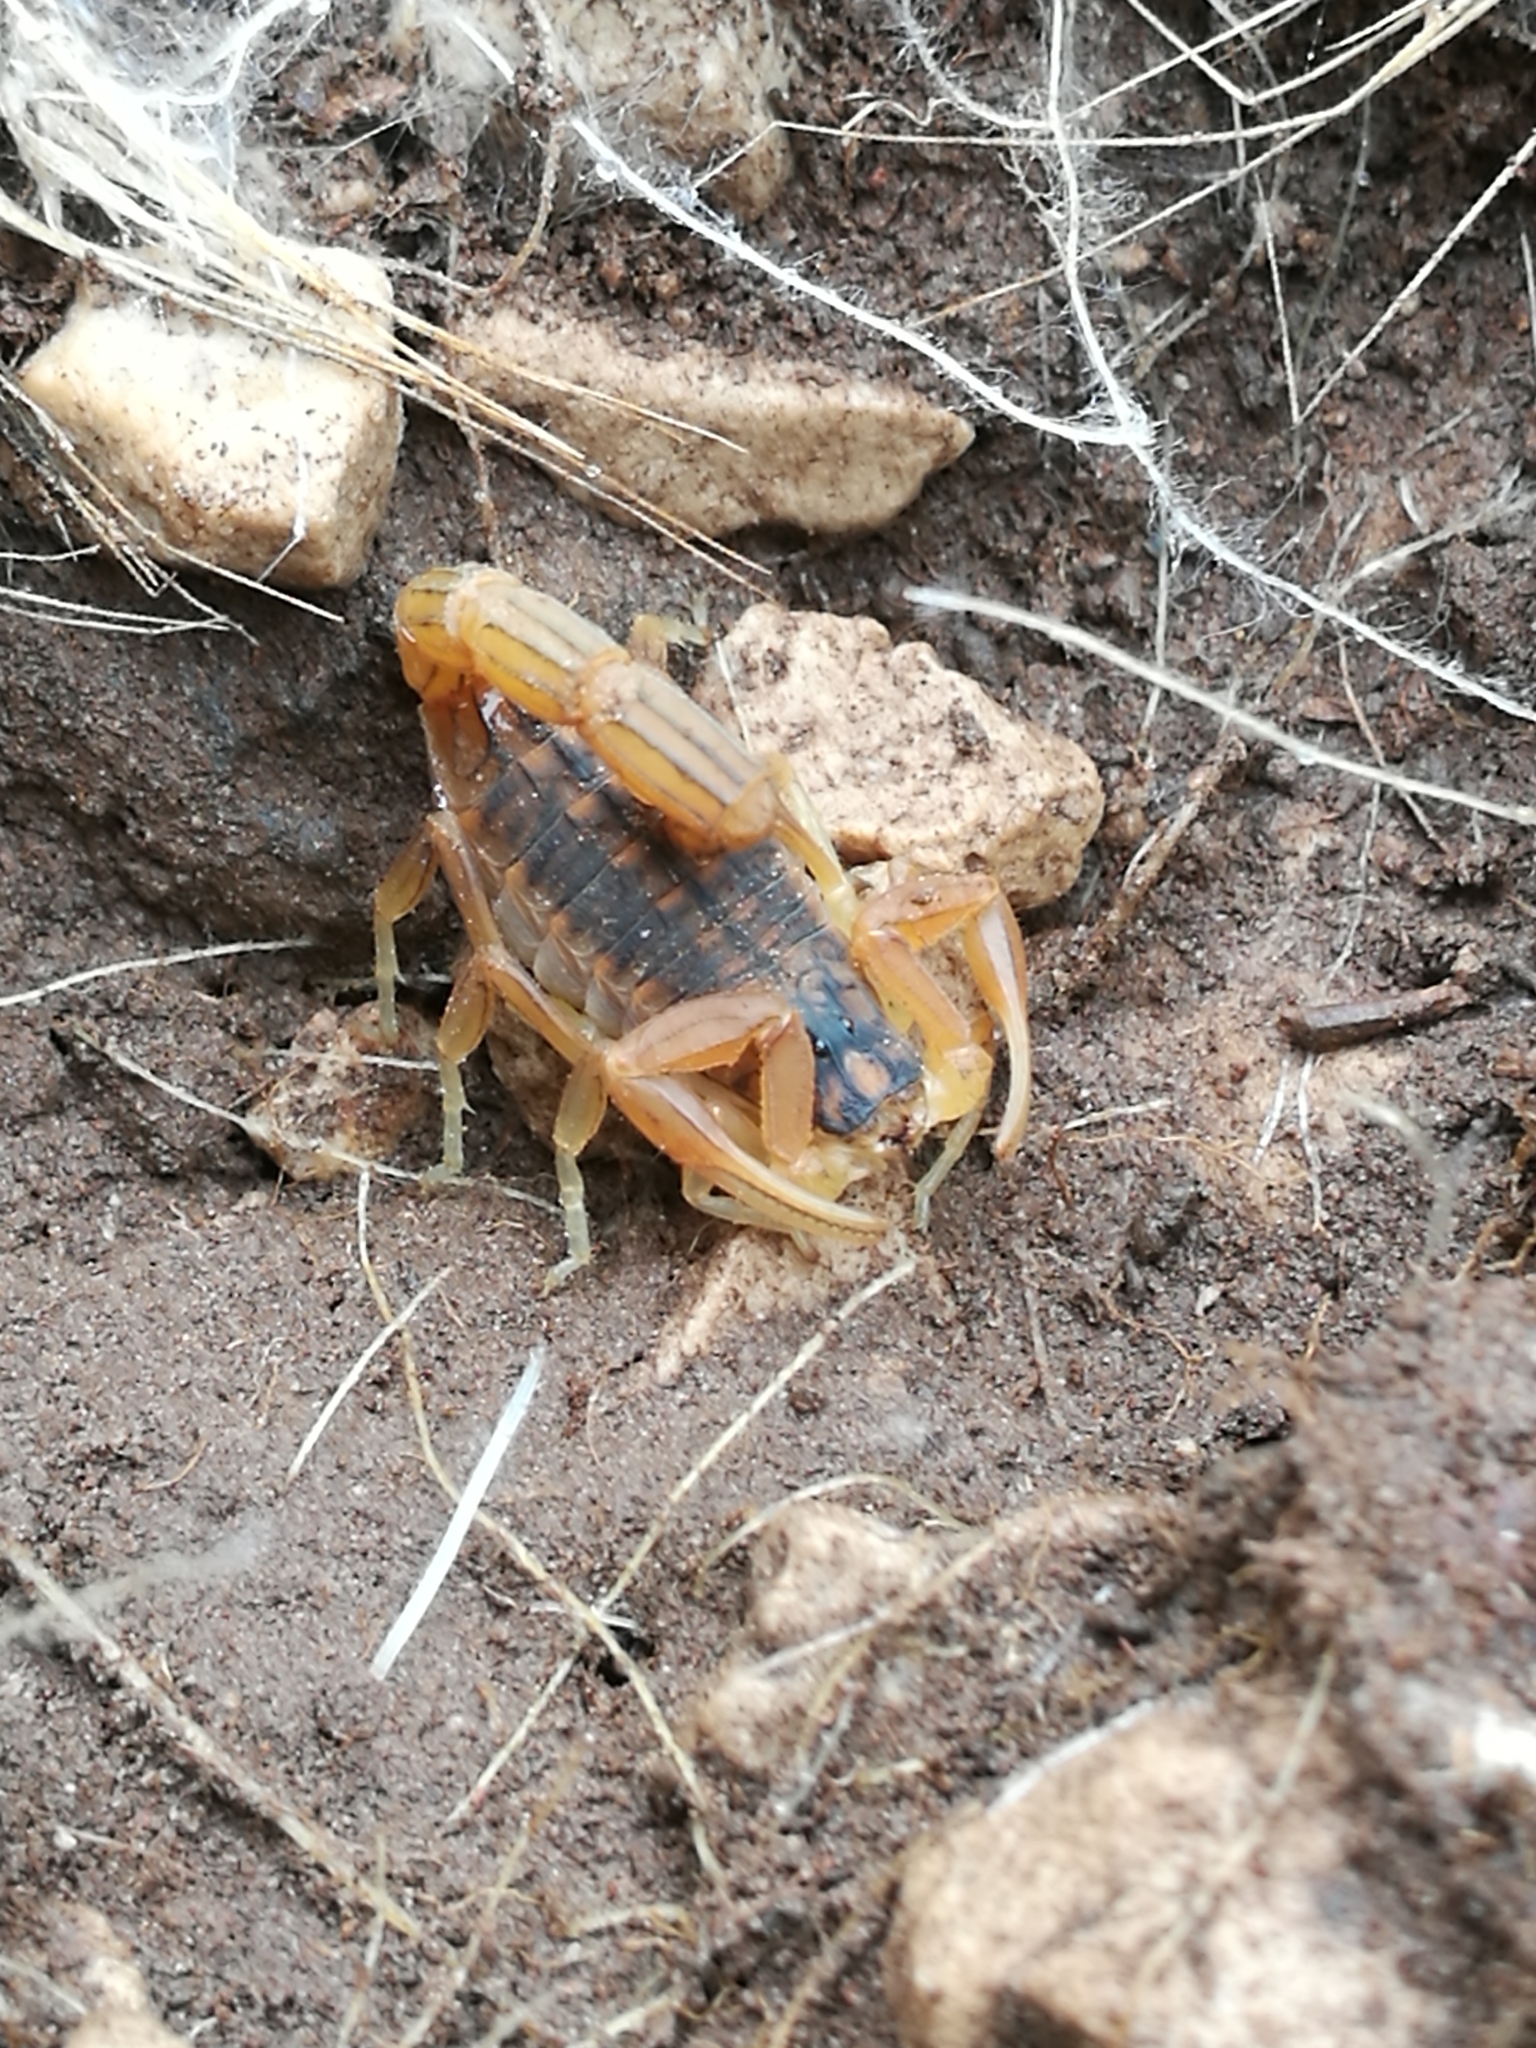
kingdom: Animalia
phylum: Arthropoda
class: Arachnida
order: Scorpiones
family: Buthidae
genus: Buthus
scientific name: Buthus albengai
